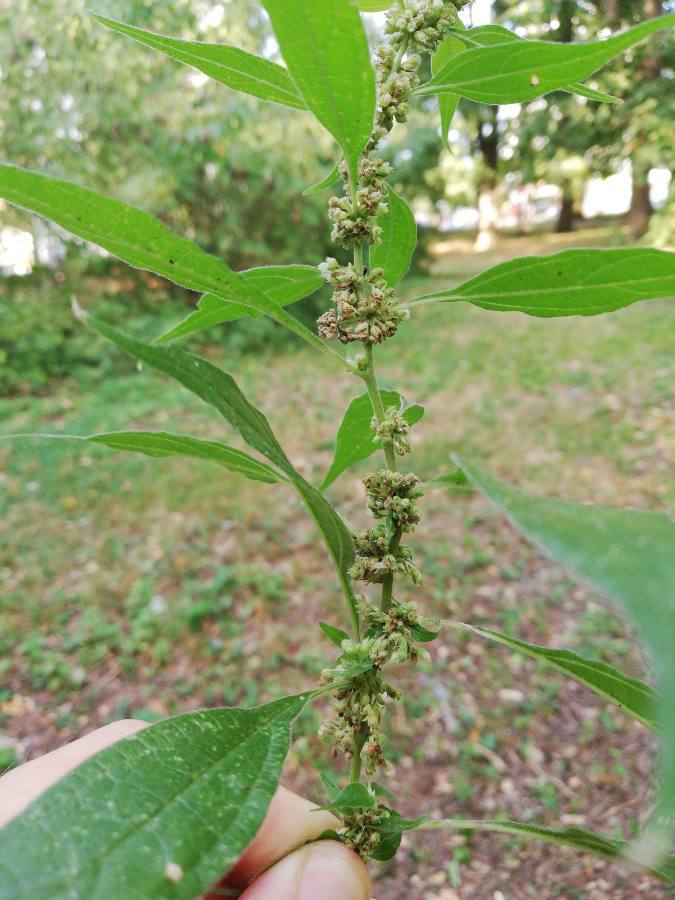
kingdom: Plantae
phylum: Tracheophyta
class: Magnoliopsida
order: Rosales
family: Urticaceae
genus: Parietaria
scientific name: Parietaria officinalis
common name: Eastern pellitory-of-the-wall
